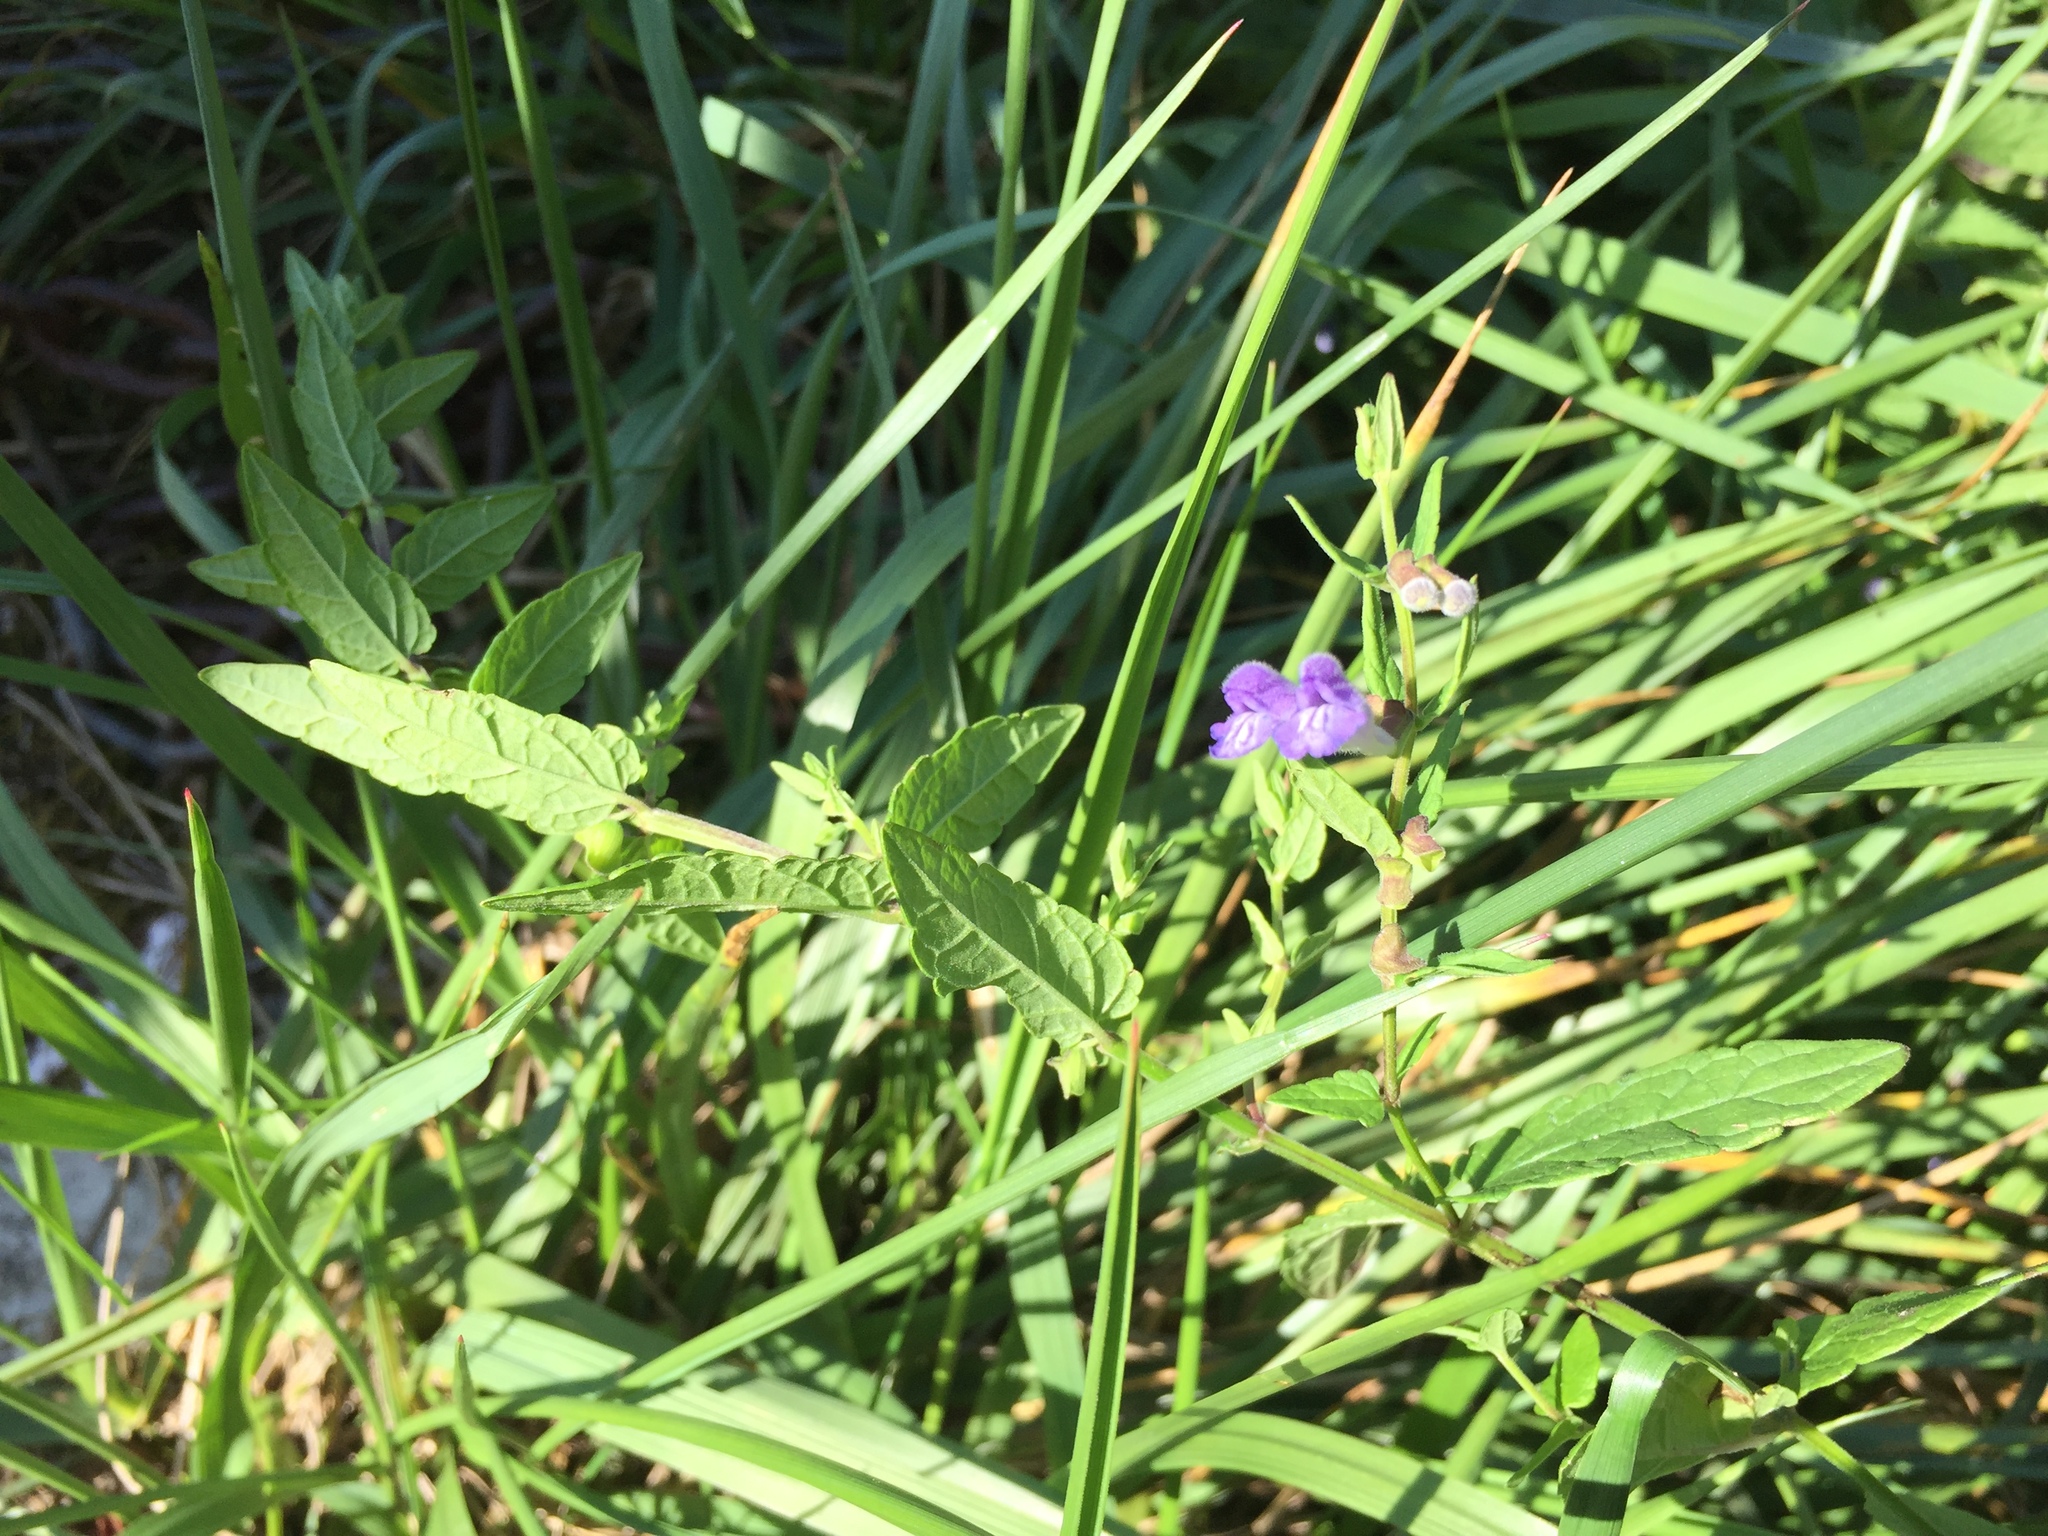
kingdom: Plantae
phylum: Tracheophyta
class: Magnoliopsida
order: Lamiales
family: Lamiaceae
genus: Scutellaria
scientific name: Scutellaria galericulata
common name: Skullcap
